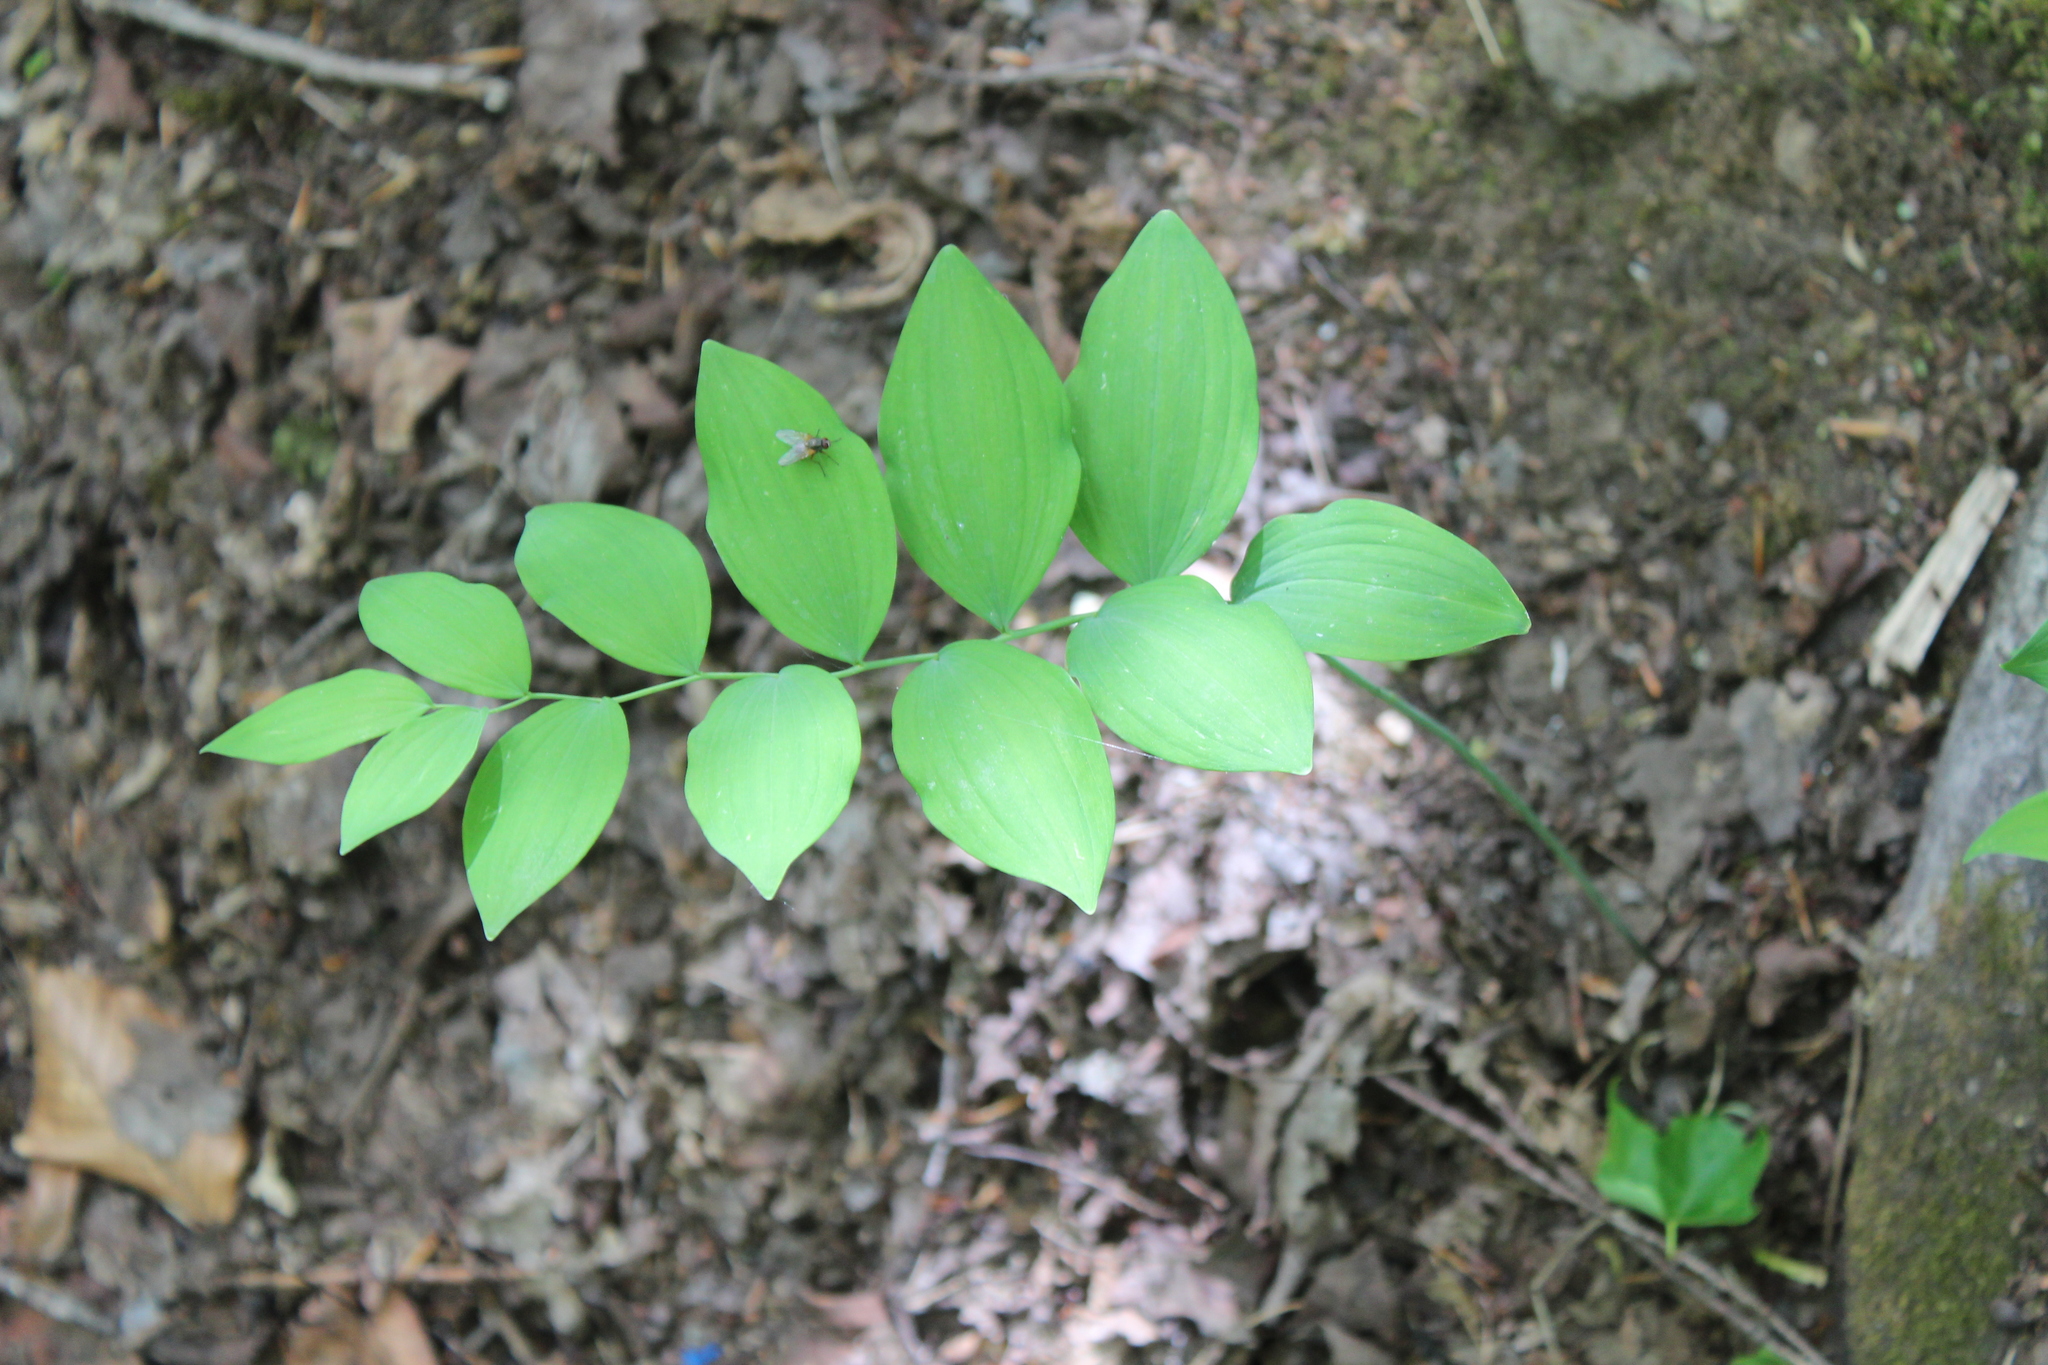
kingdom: Plantae
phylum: Tracheophyta
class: Liliopsida
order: Asparagales
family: Asparagaceae
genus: Polygonatum
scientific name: Polygonatum pubescens
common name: Downy solomon's seal
